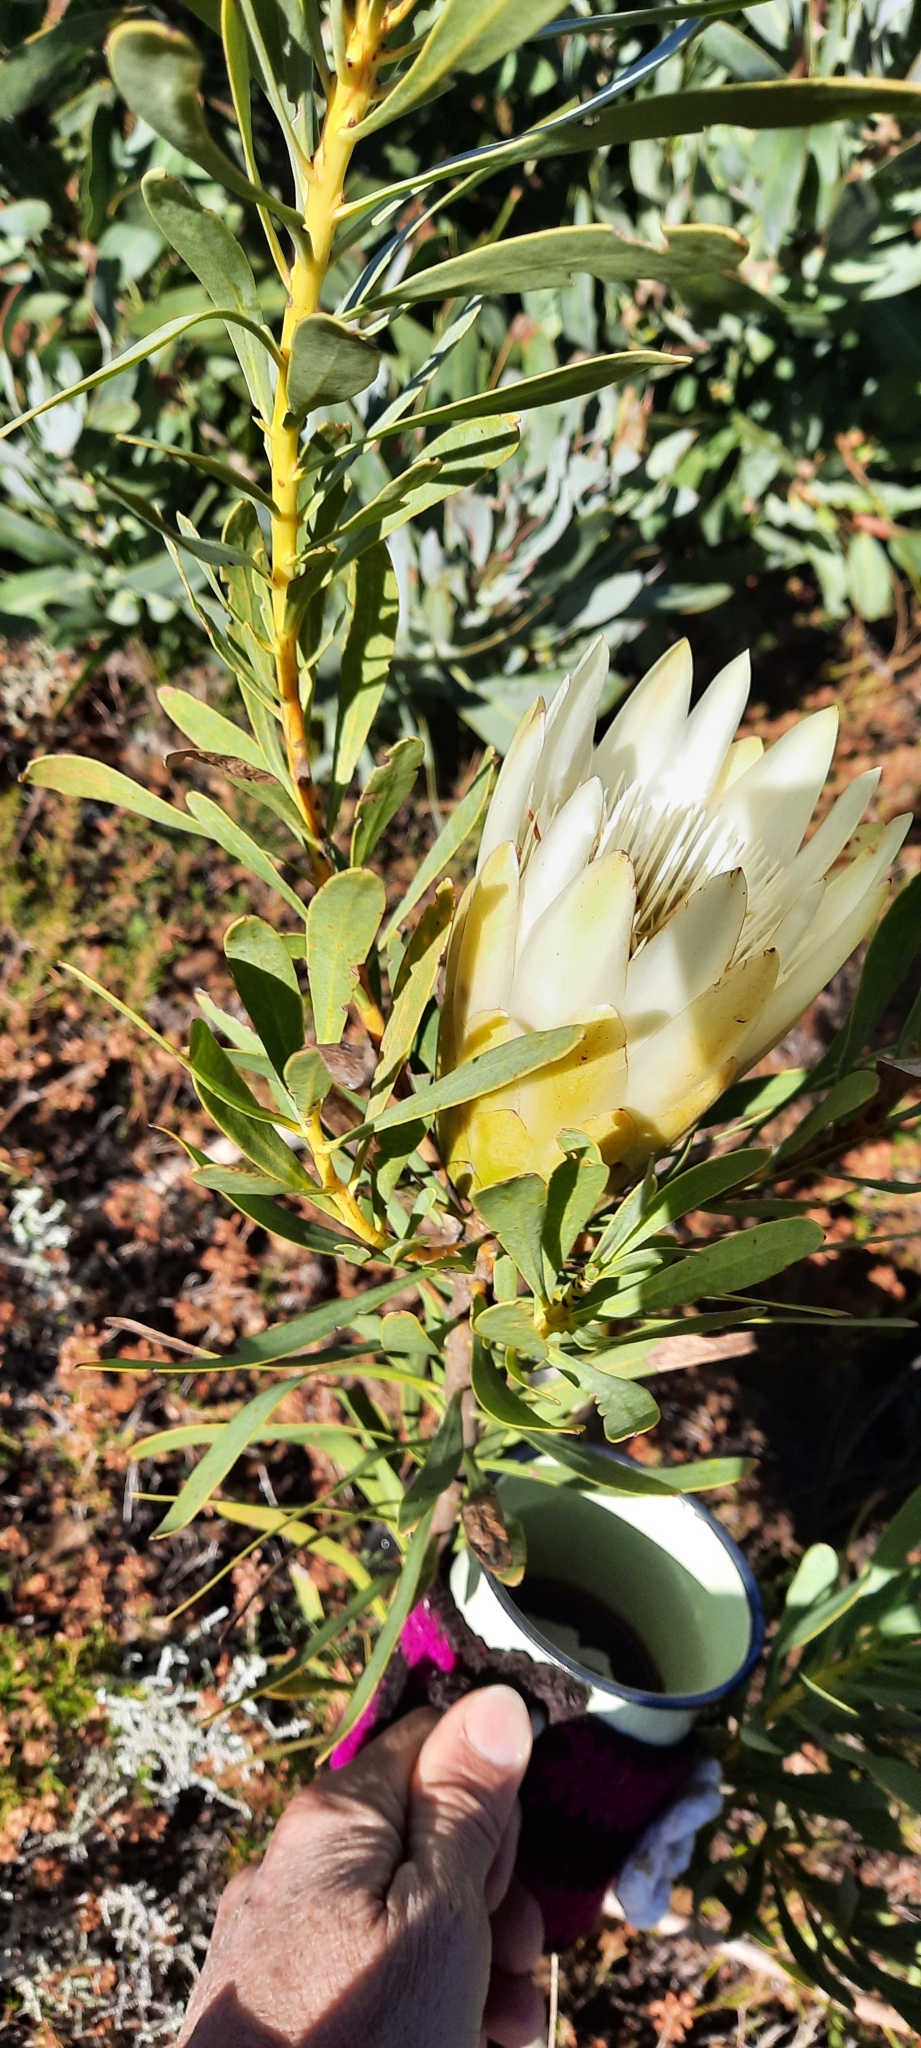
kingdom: Plantae
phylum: Tracheophyta
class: Magnoliopsida
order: Proteales
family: Proteaceae
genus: Protea
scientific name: Protea repens
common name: Sugarbush
